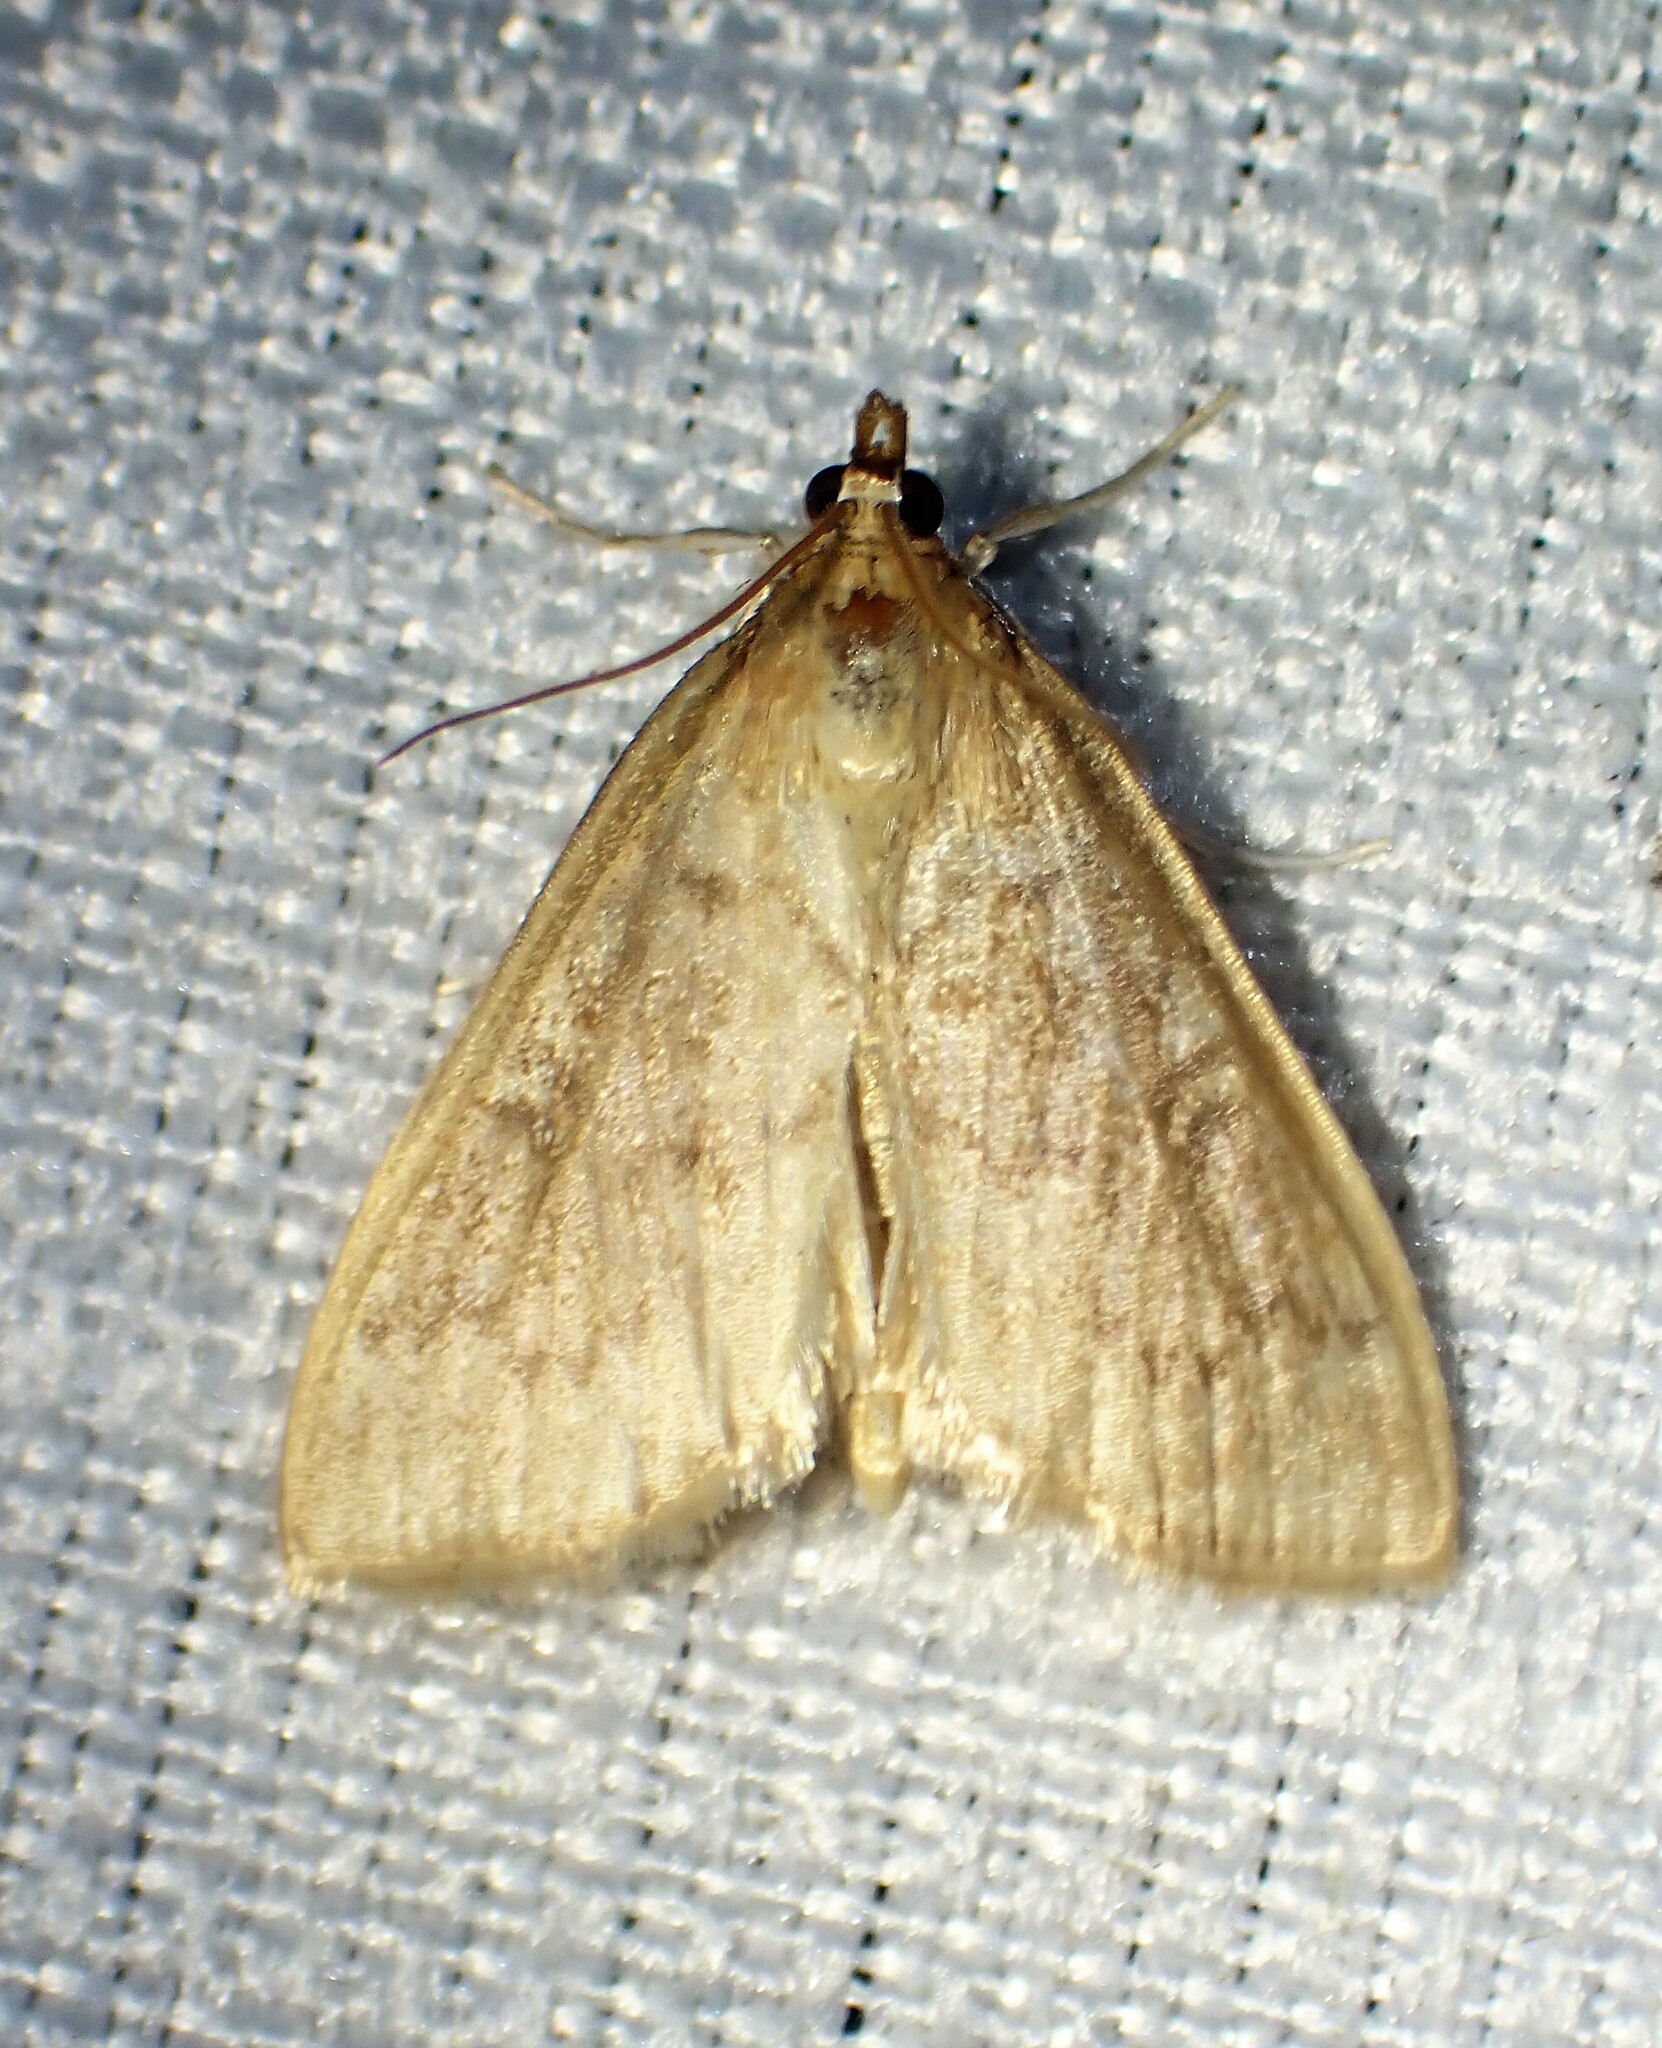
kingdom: Animalia
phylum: Arthropoda
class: Insecta
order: Lepidoptera
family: Crambidae
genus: Anania
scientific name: Anania Framinghamia helvalis
